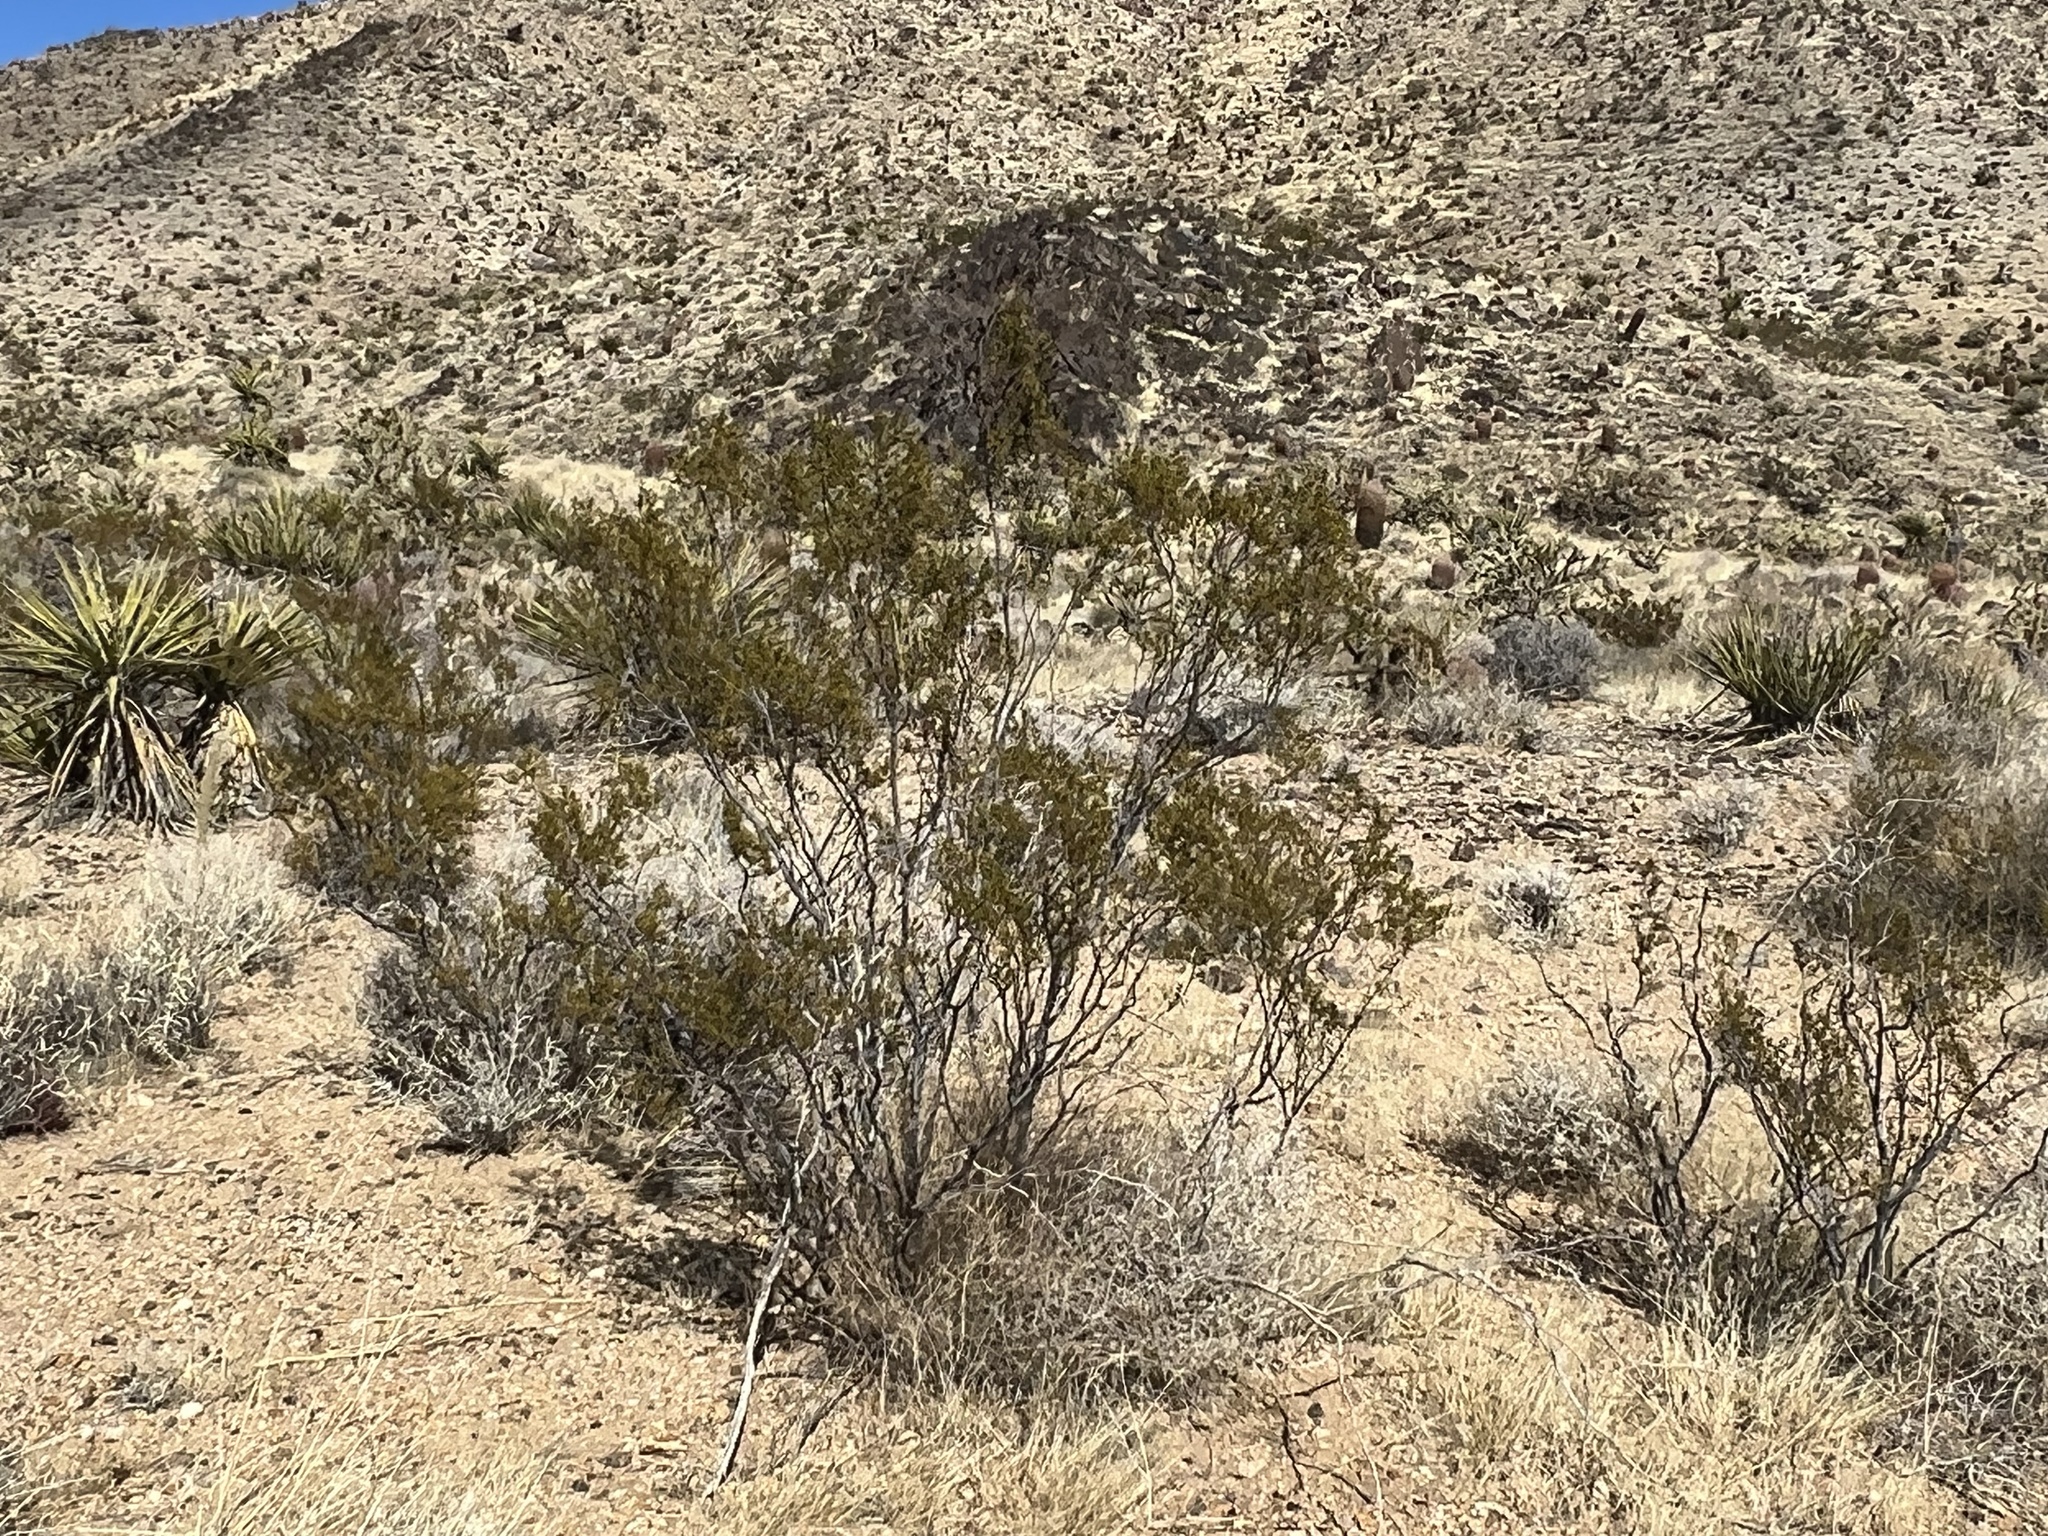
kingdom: Plantae
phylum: Tracheophyta
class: Magnoliopsida
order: Zygophyllales
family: Zygophyllaceae
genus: Larrea
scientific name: Larrea tridentata
